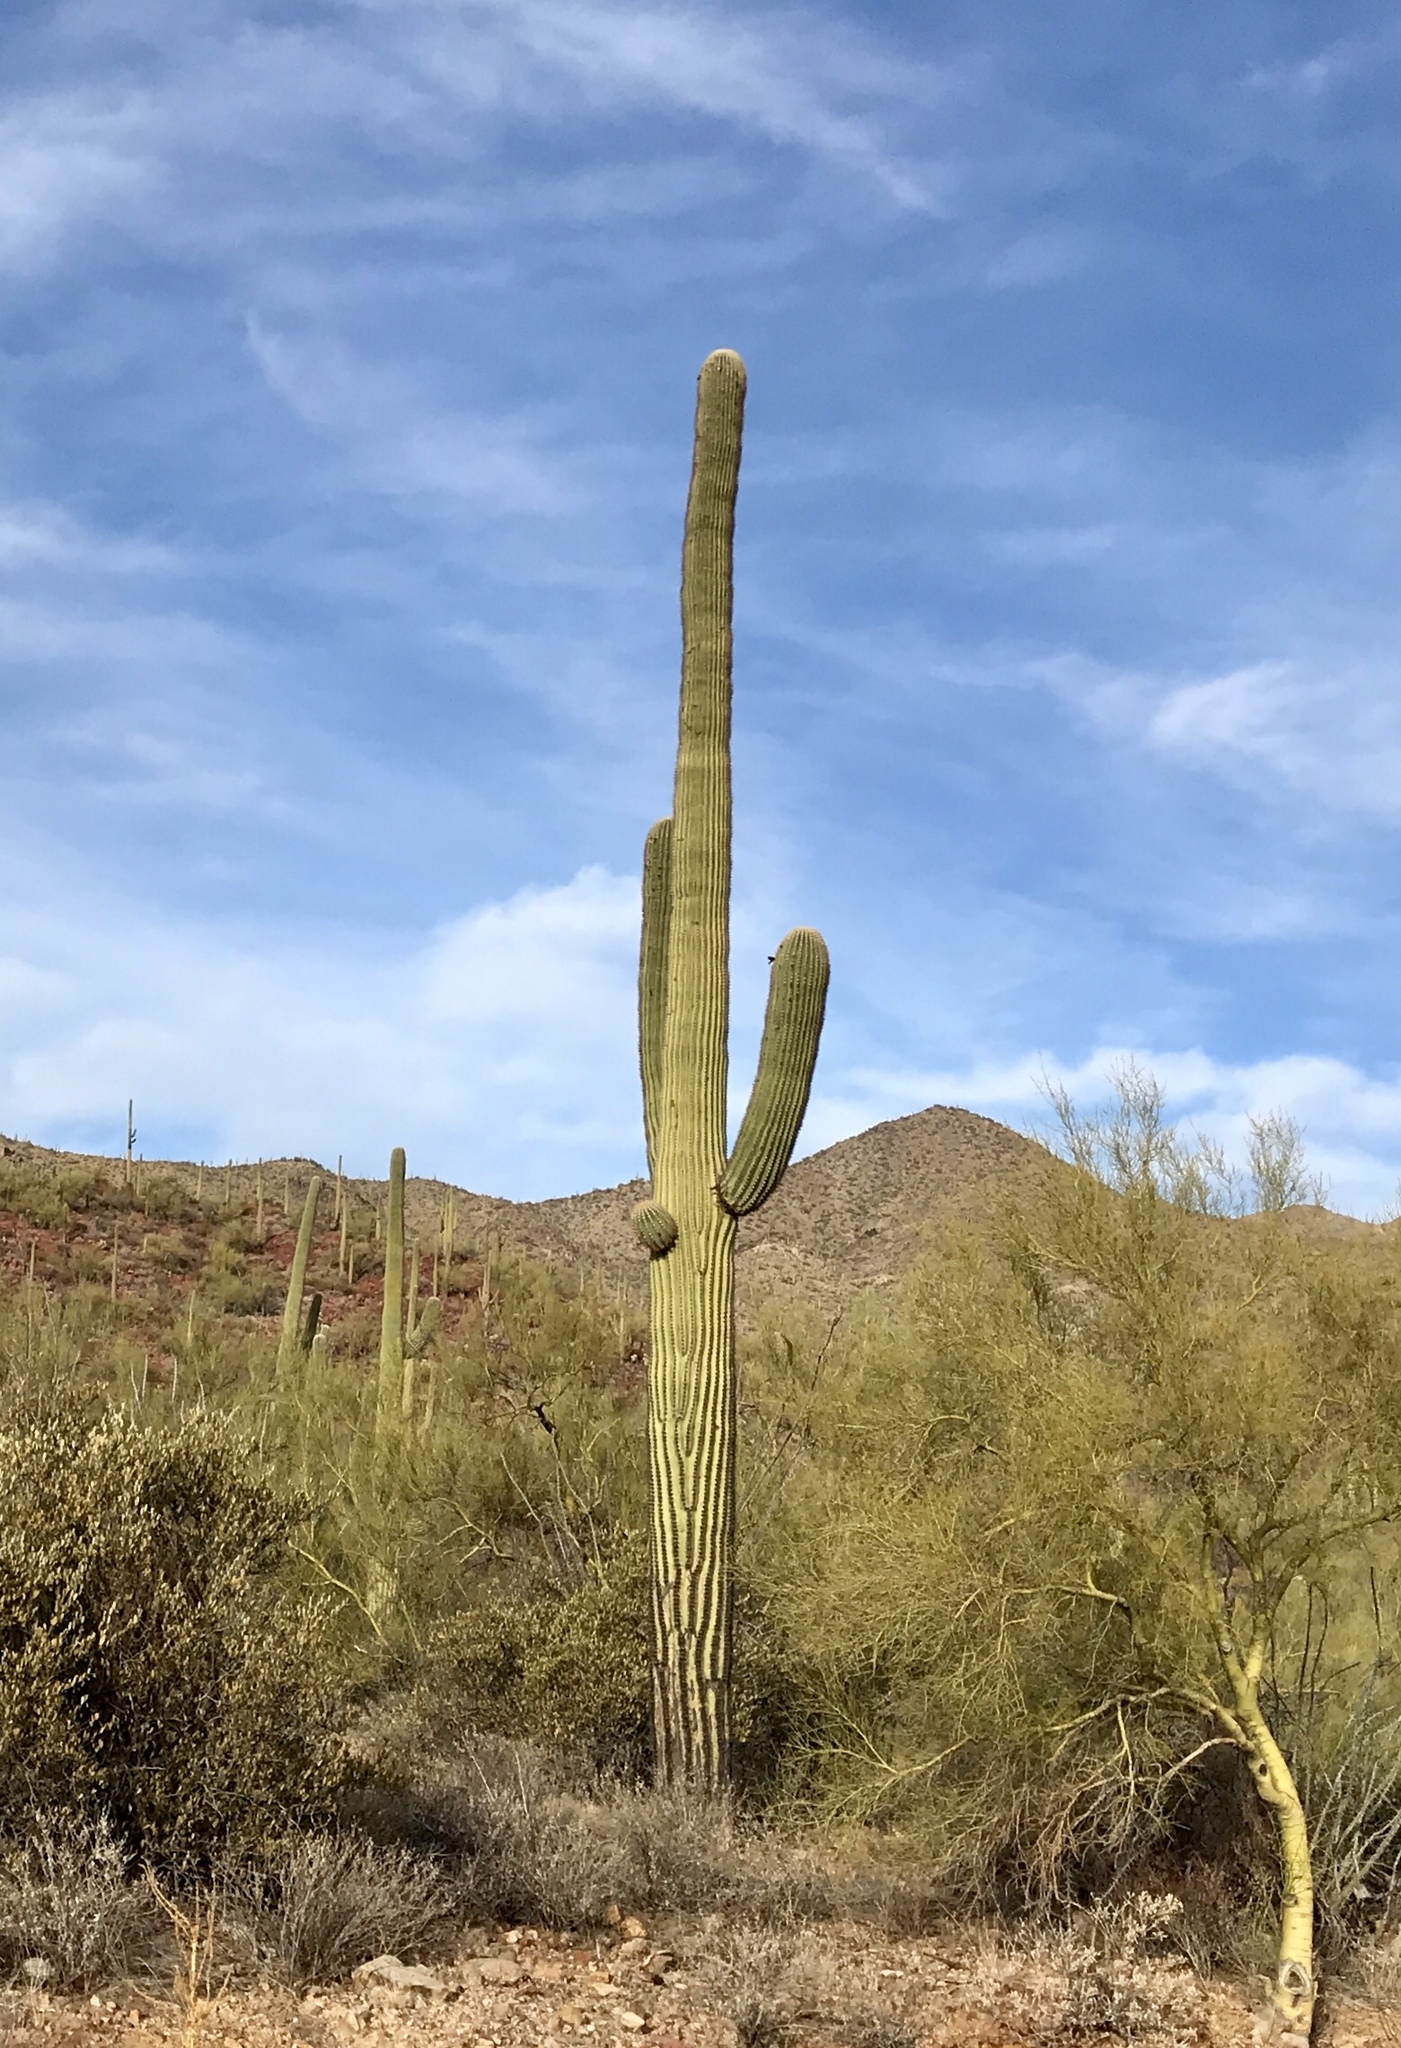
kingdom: Plantae
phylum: Tracheophyta
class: Magnoliopsida
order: Caryophyllales
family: Cactaceae
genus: Carnegiea
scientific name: Carnegiea gigantea
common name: Saguaro
